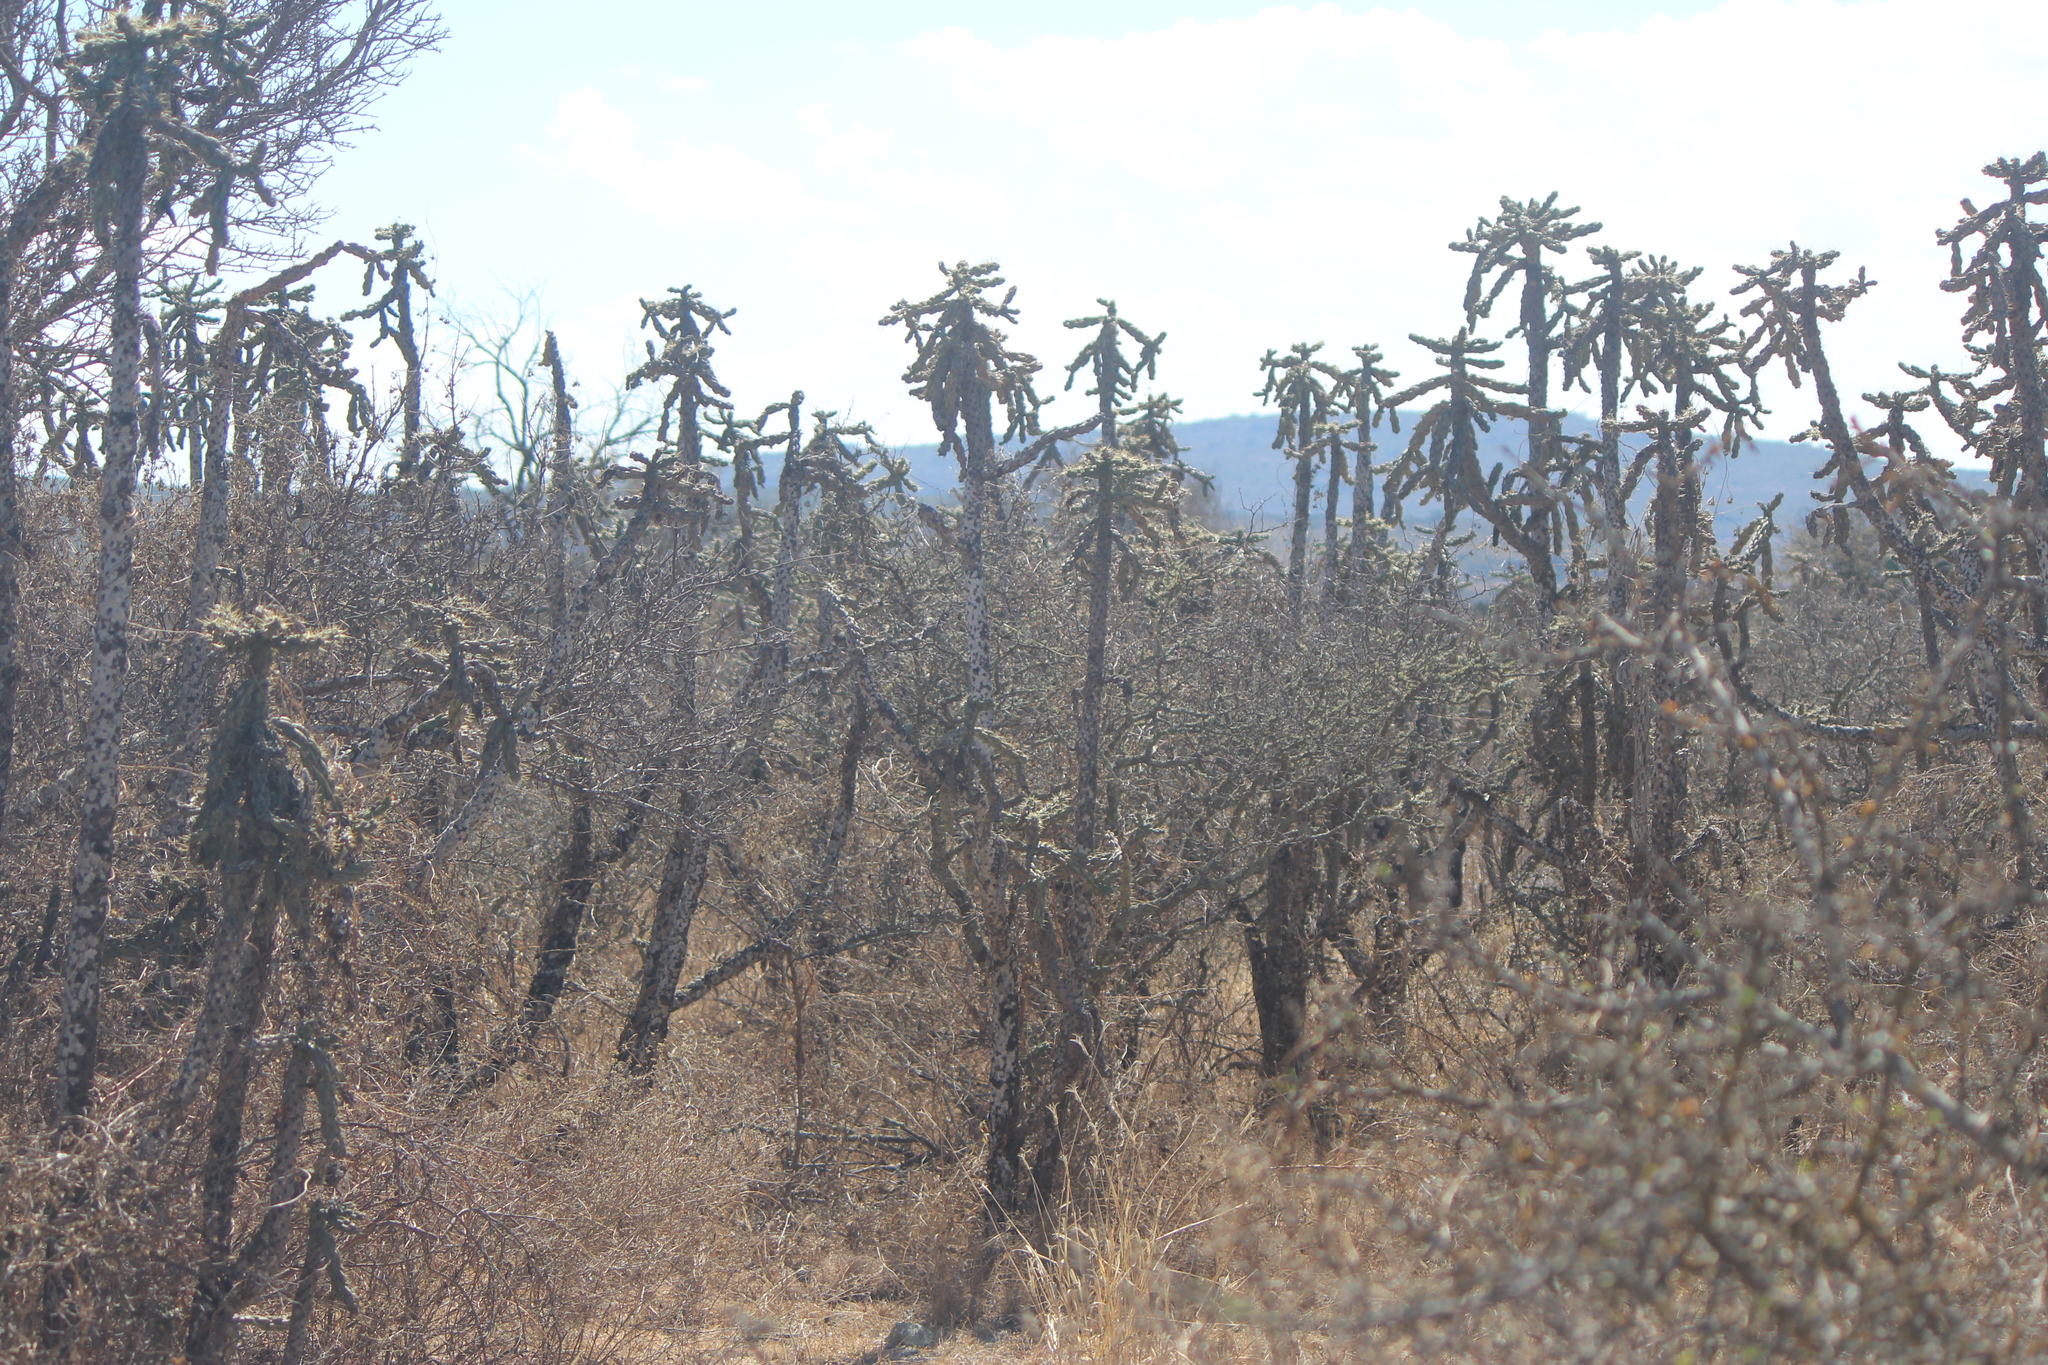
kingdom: Plantae
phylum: Tracheophyta
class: Magnoliopsida
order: Caryophyllales
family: Cactaceae
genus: Cylindropuntia
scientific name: Cylindropuntia imbricata
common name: Candelabrum cactus
